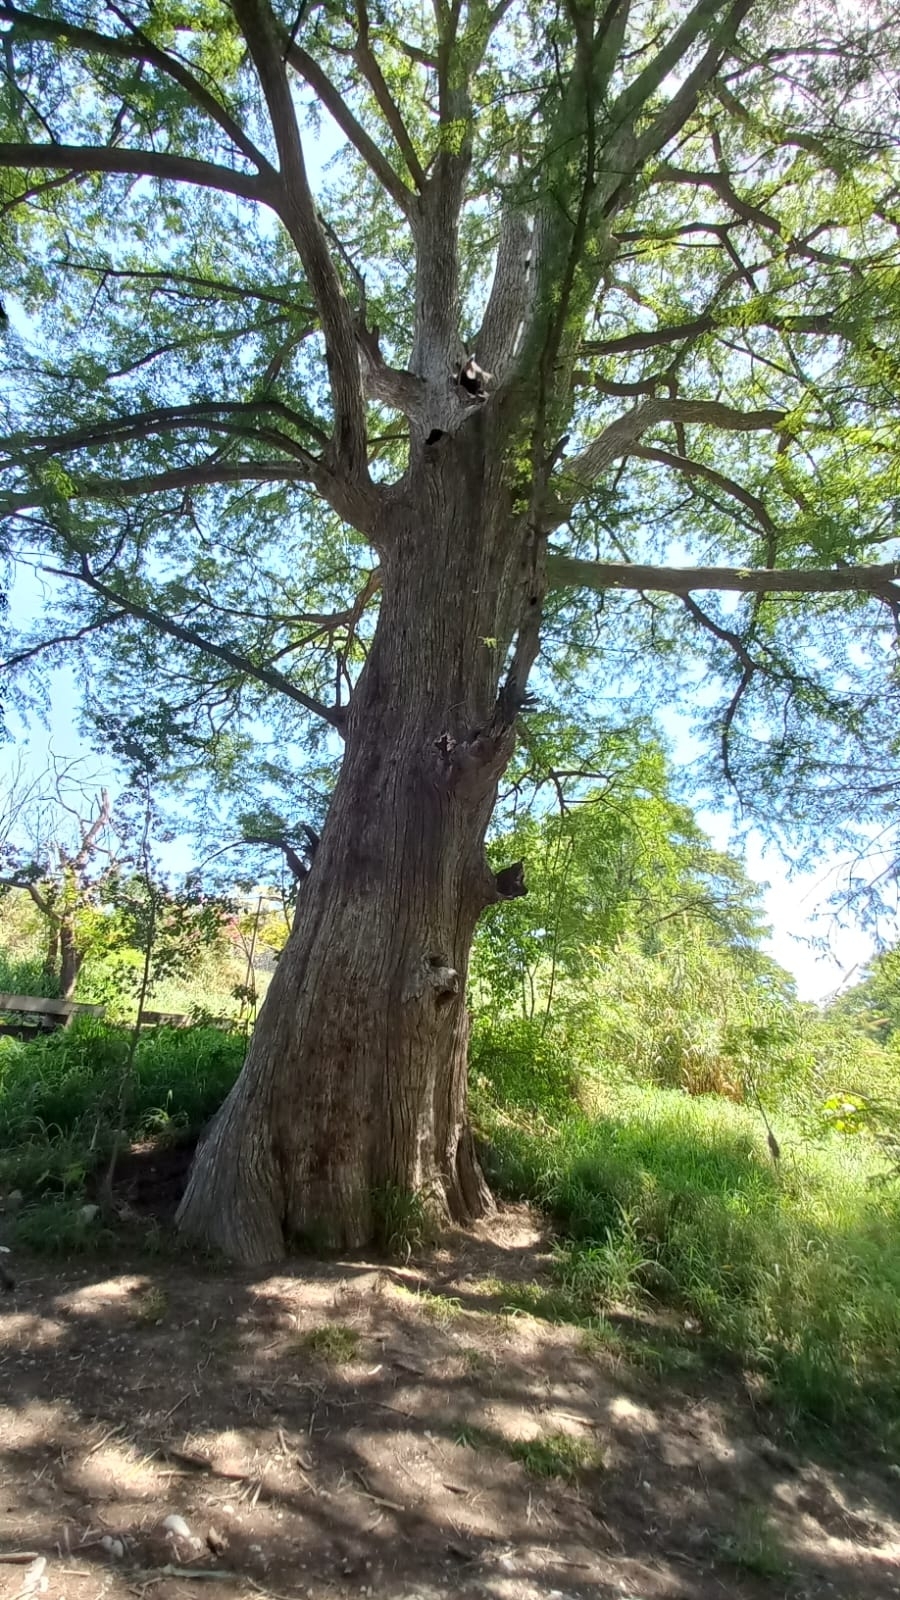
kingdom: Plantae
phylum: Tracheophyta
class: Pinopsida
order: Pinales
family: Cupressaceae
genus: Taxodium
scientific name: Taxodium mucronatum
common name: Montezume bald cypress
